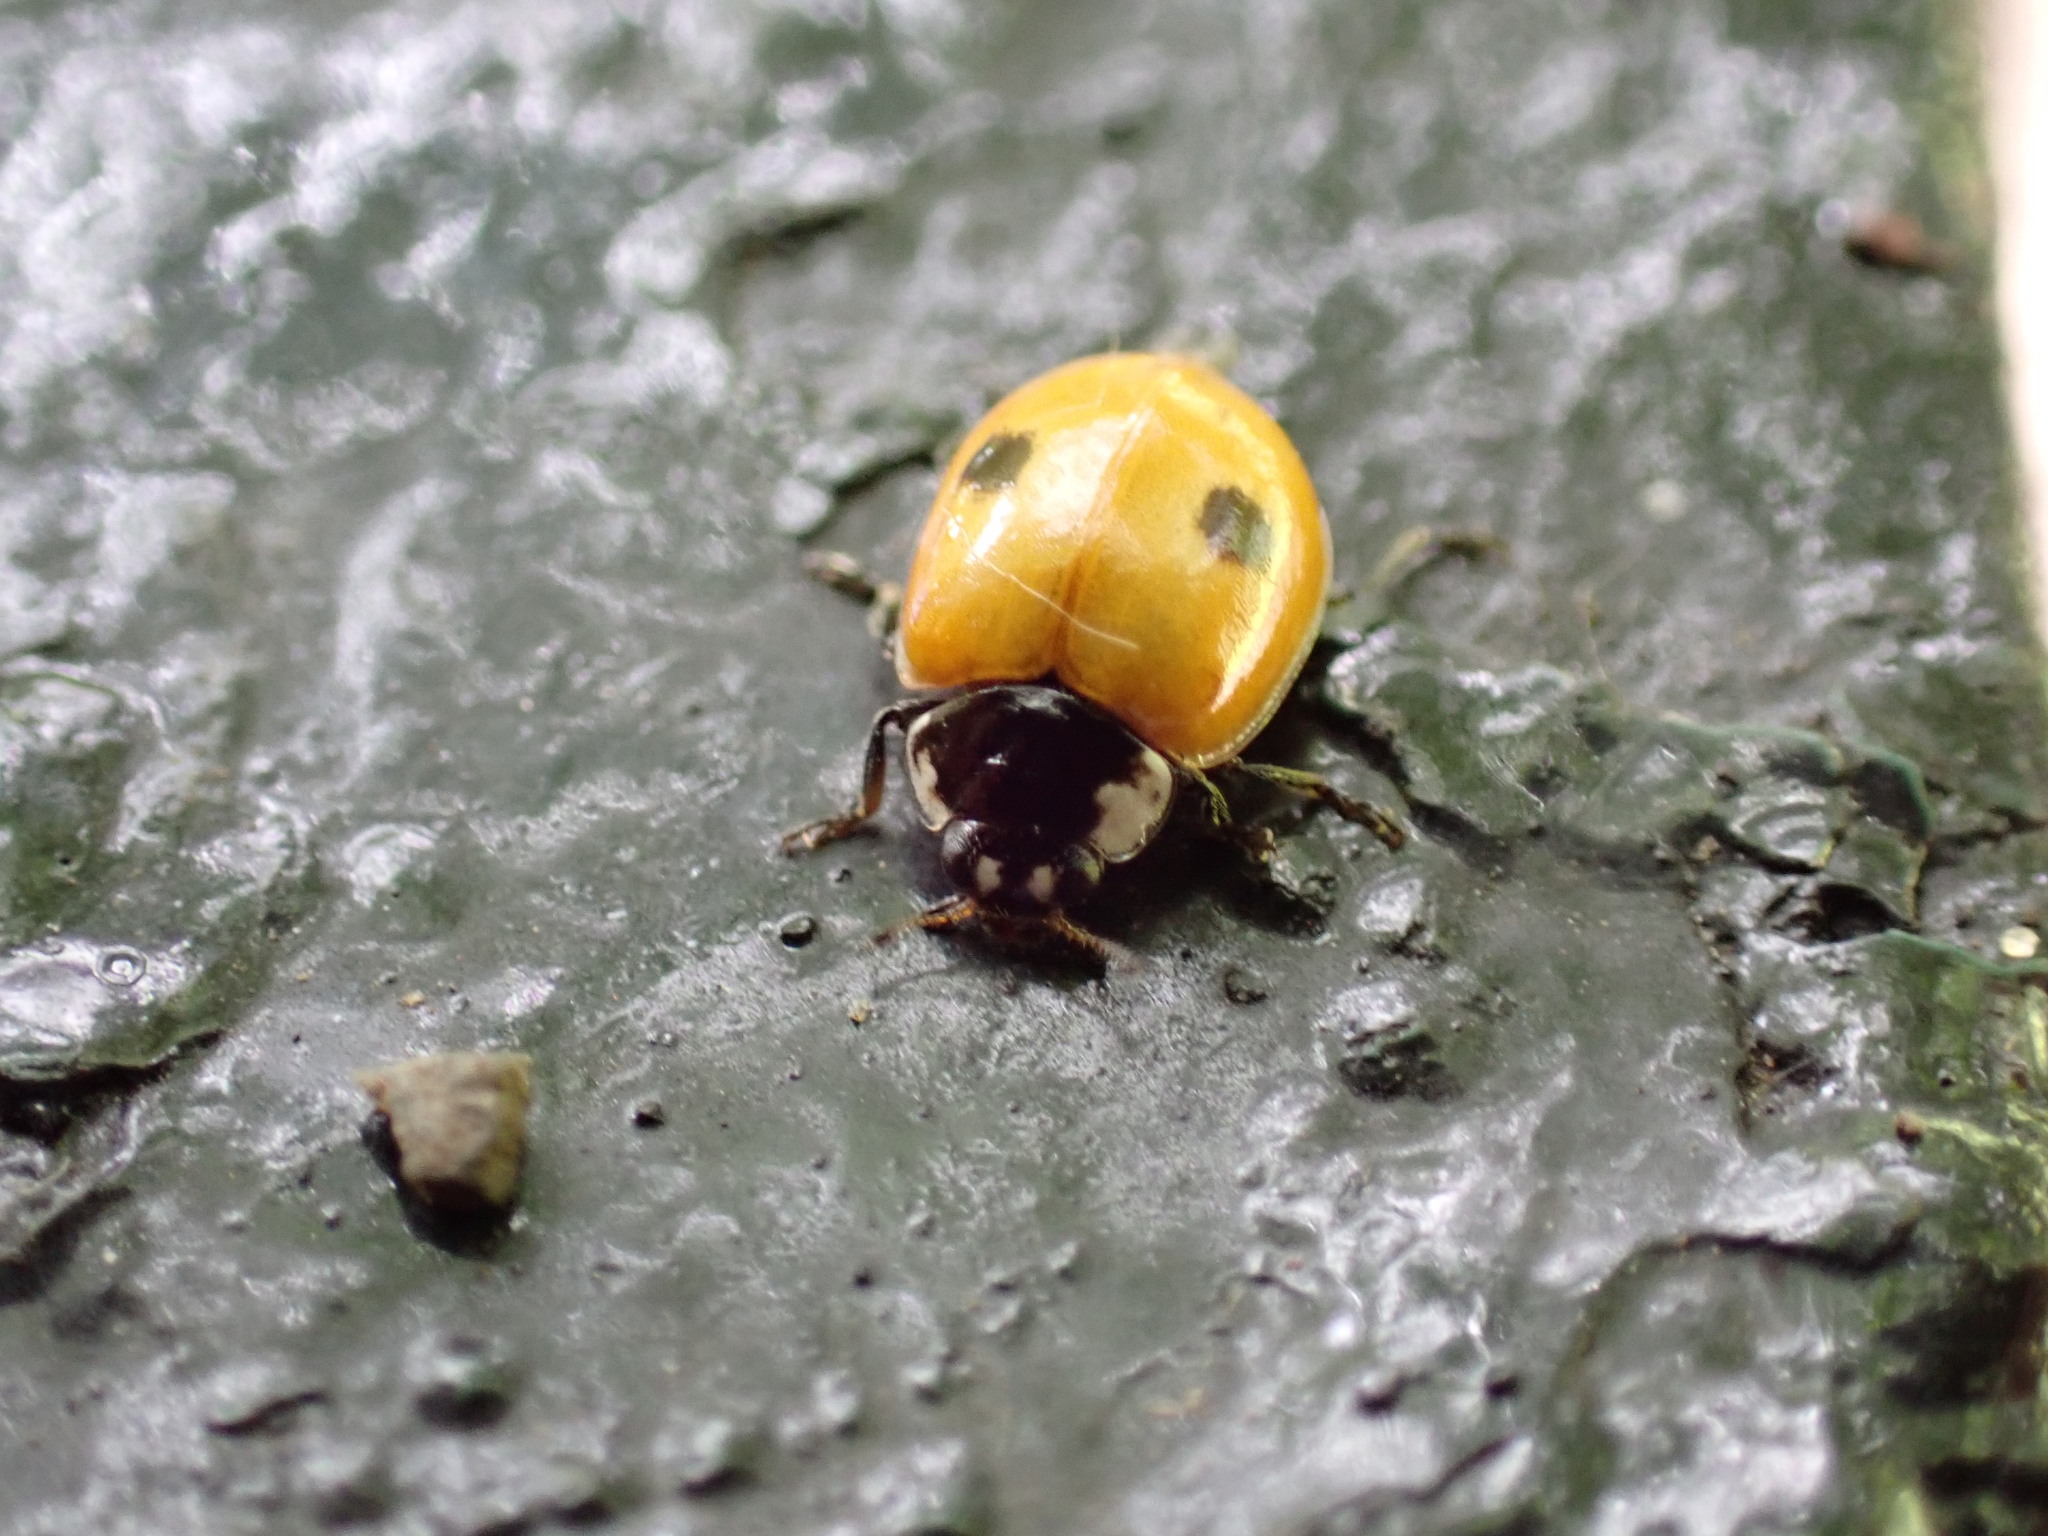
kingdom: Animalia
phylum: Arthropoda
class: Insecta
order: Coleoptera
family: Coccinellidae
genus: Adalia
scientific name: Adalia bipunctata
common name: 2-spot ladybird
